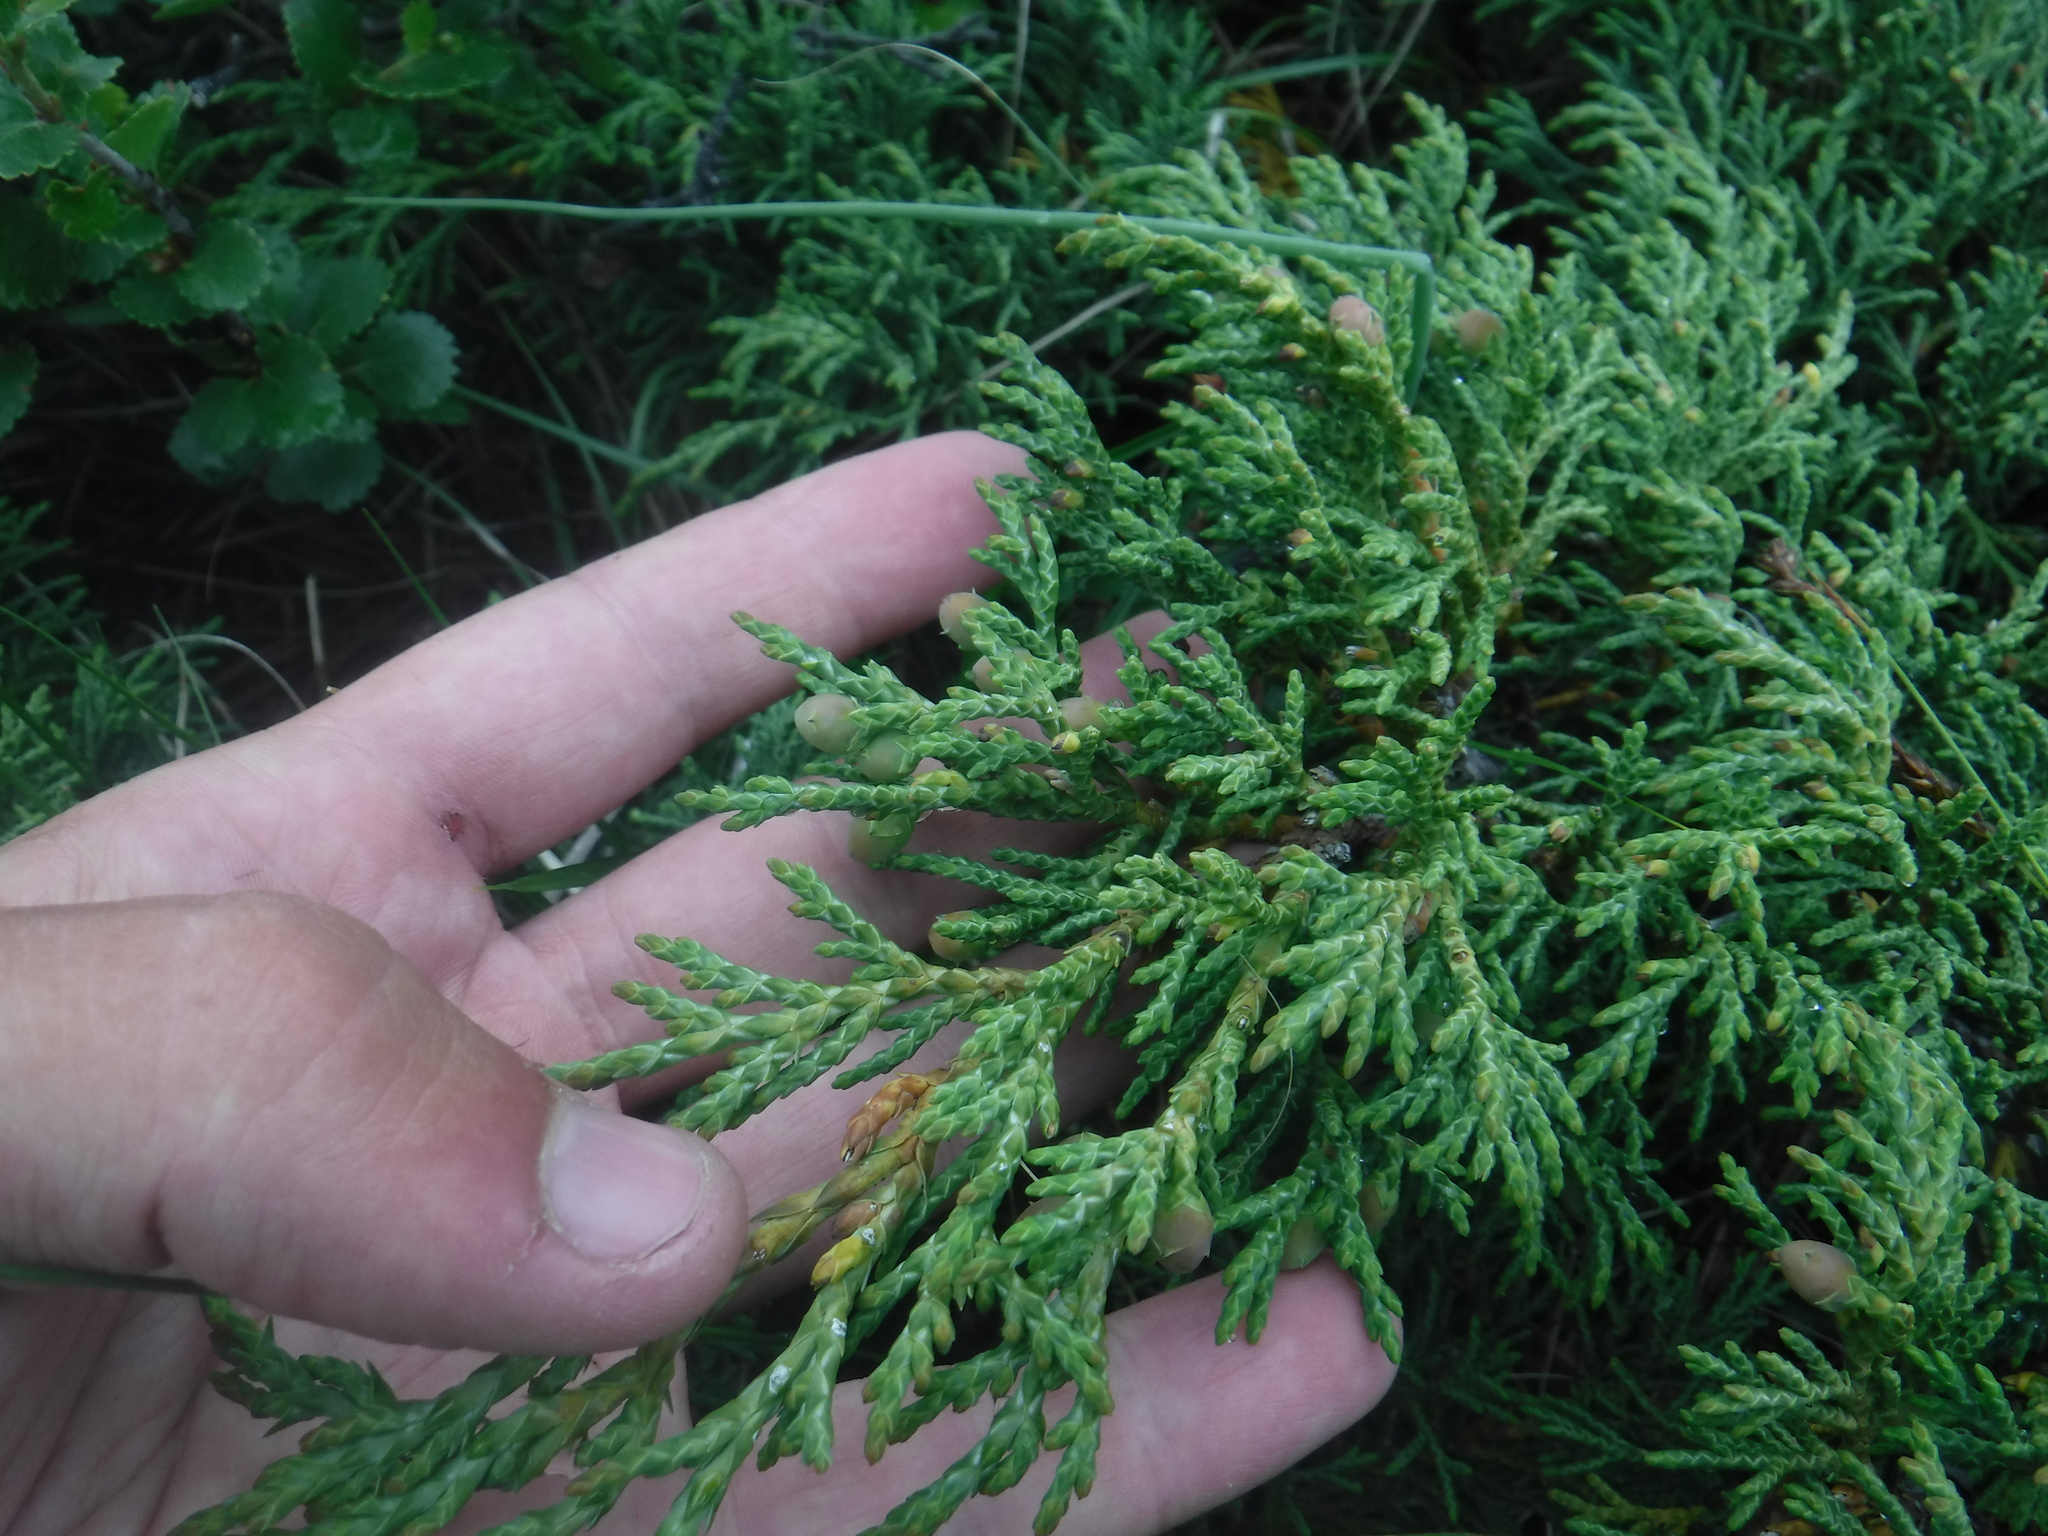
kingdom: Plantae
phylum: Tracheophyta
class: Pinopsida
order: Pinales
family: Cupressaceae
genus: Juniperus
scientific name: Juniperus pseudosabina
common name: Turkestan juniper
